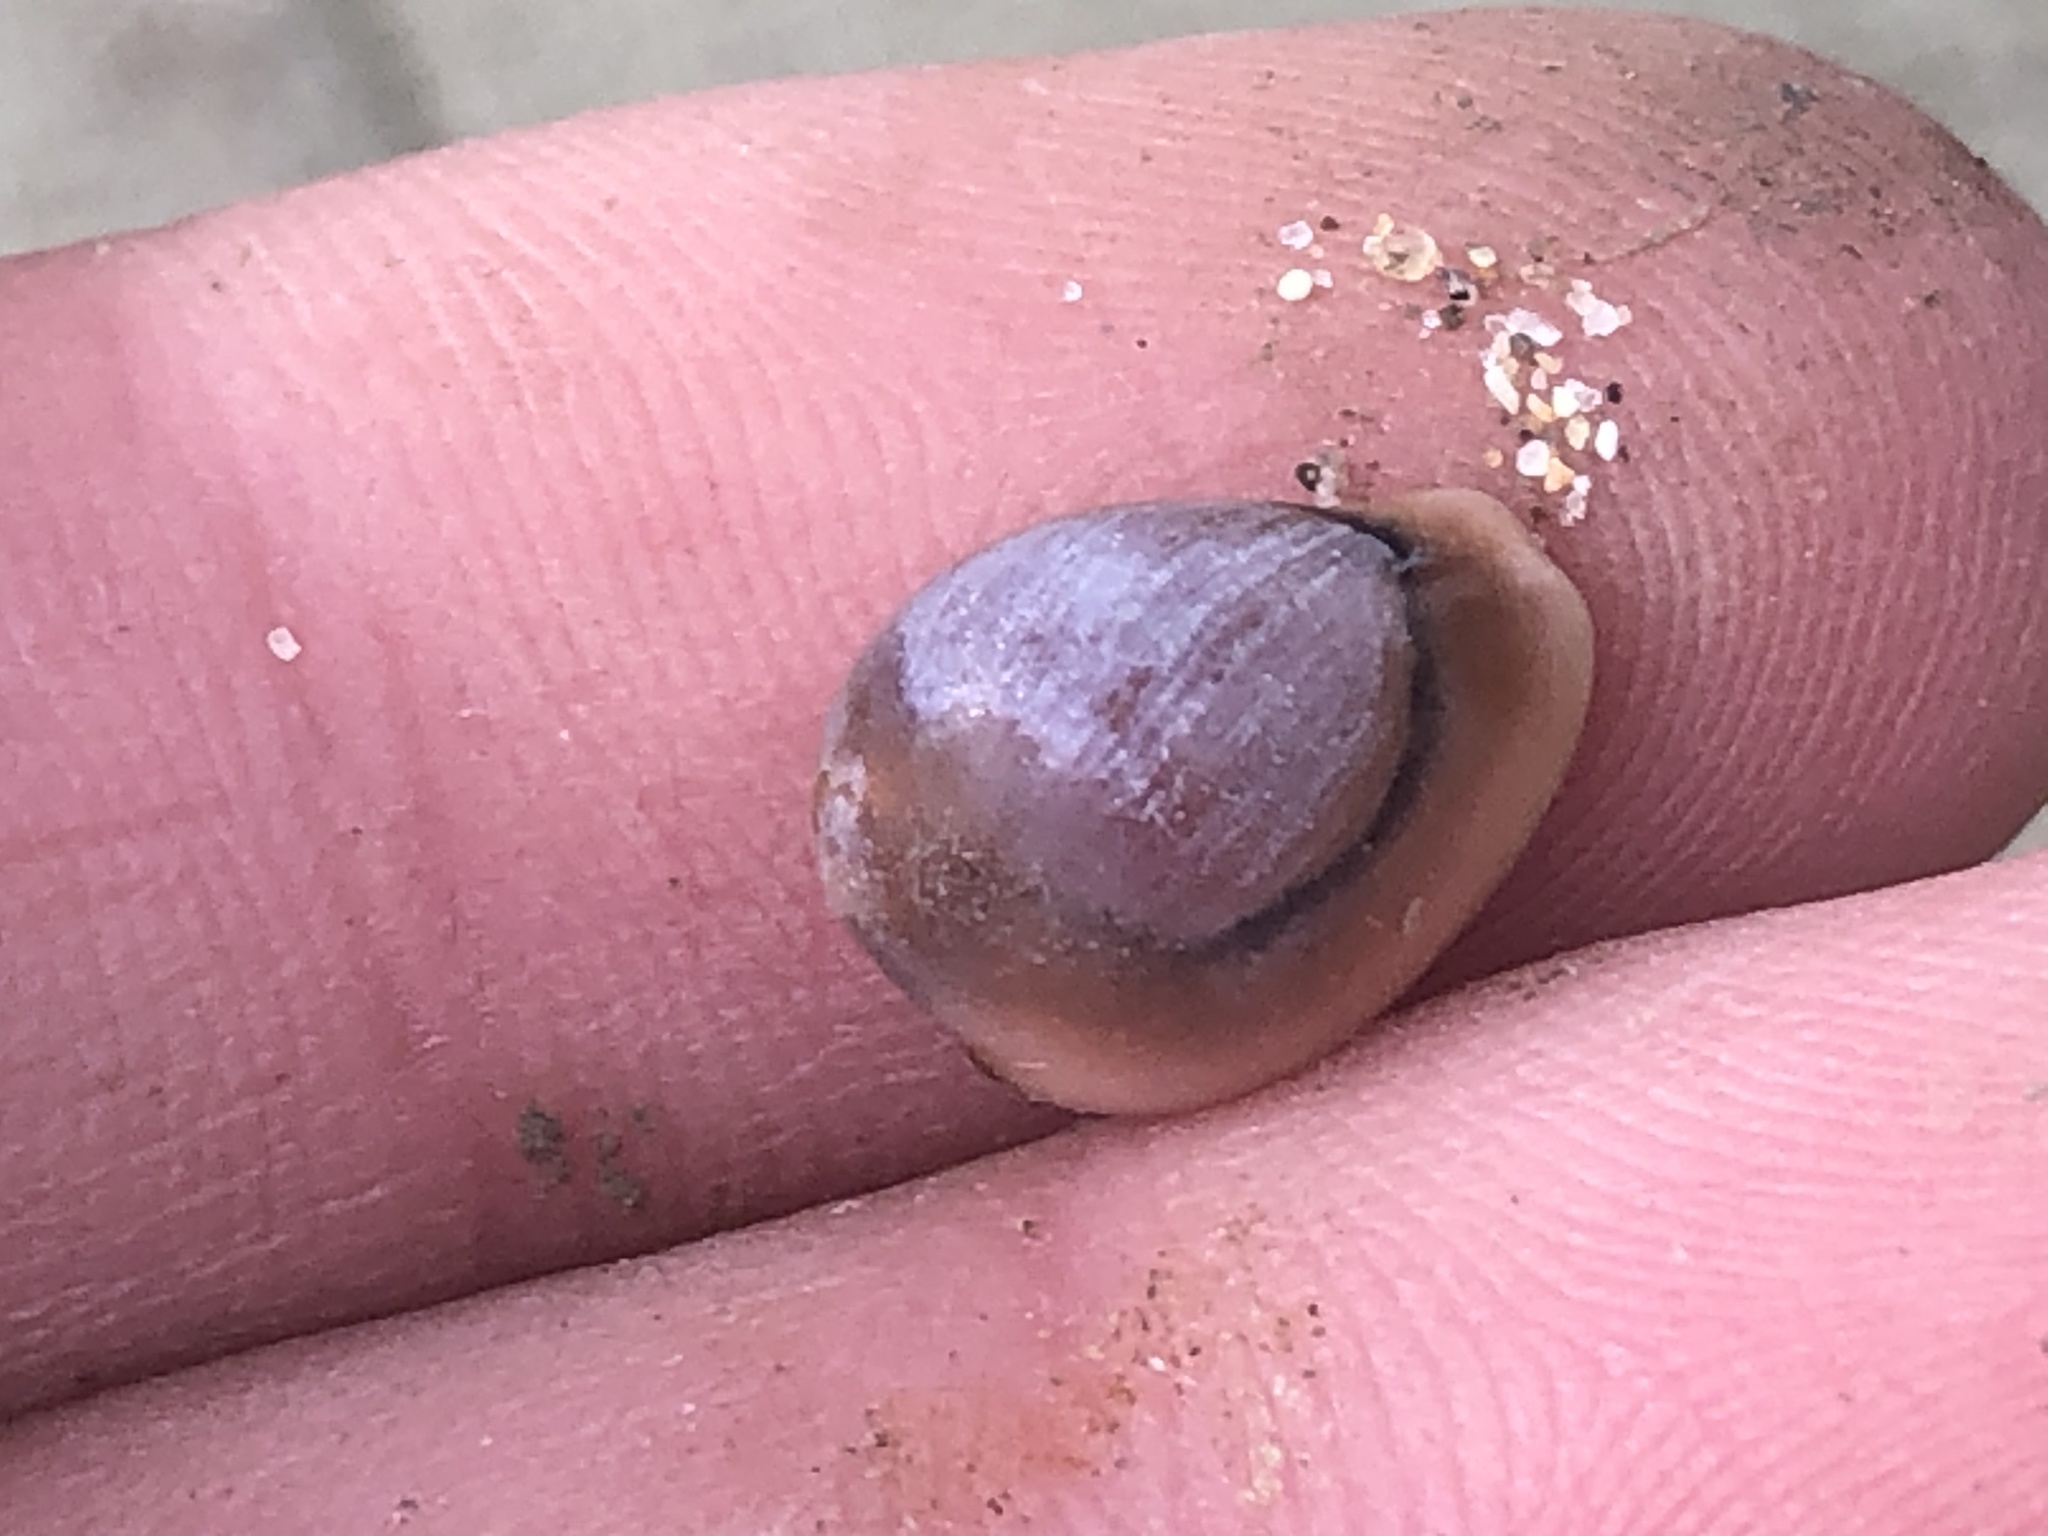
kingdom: Animalia
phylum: Mollusca
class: Gastropoda
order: Littorinimorpha
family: Eratoidae
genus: Hespererato
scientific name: Hespererato vitellina
